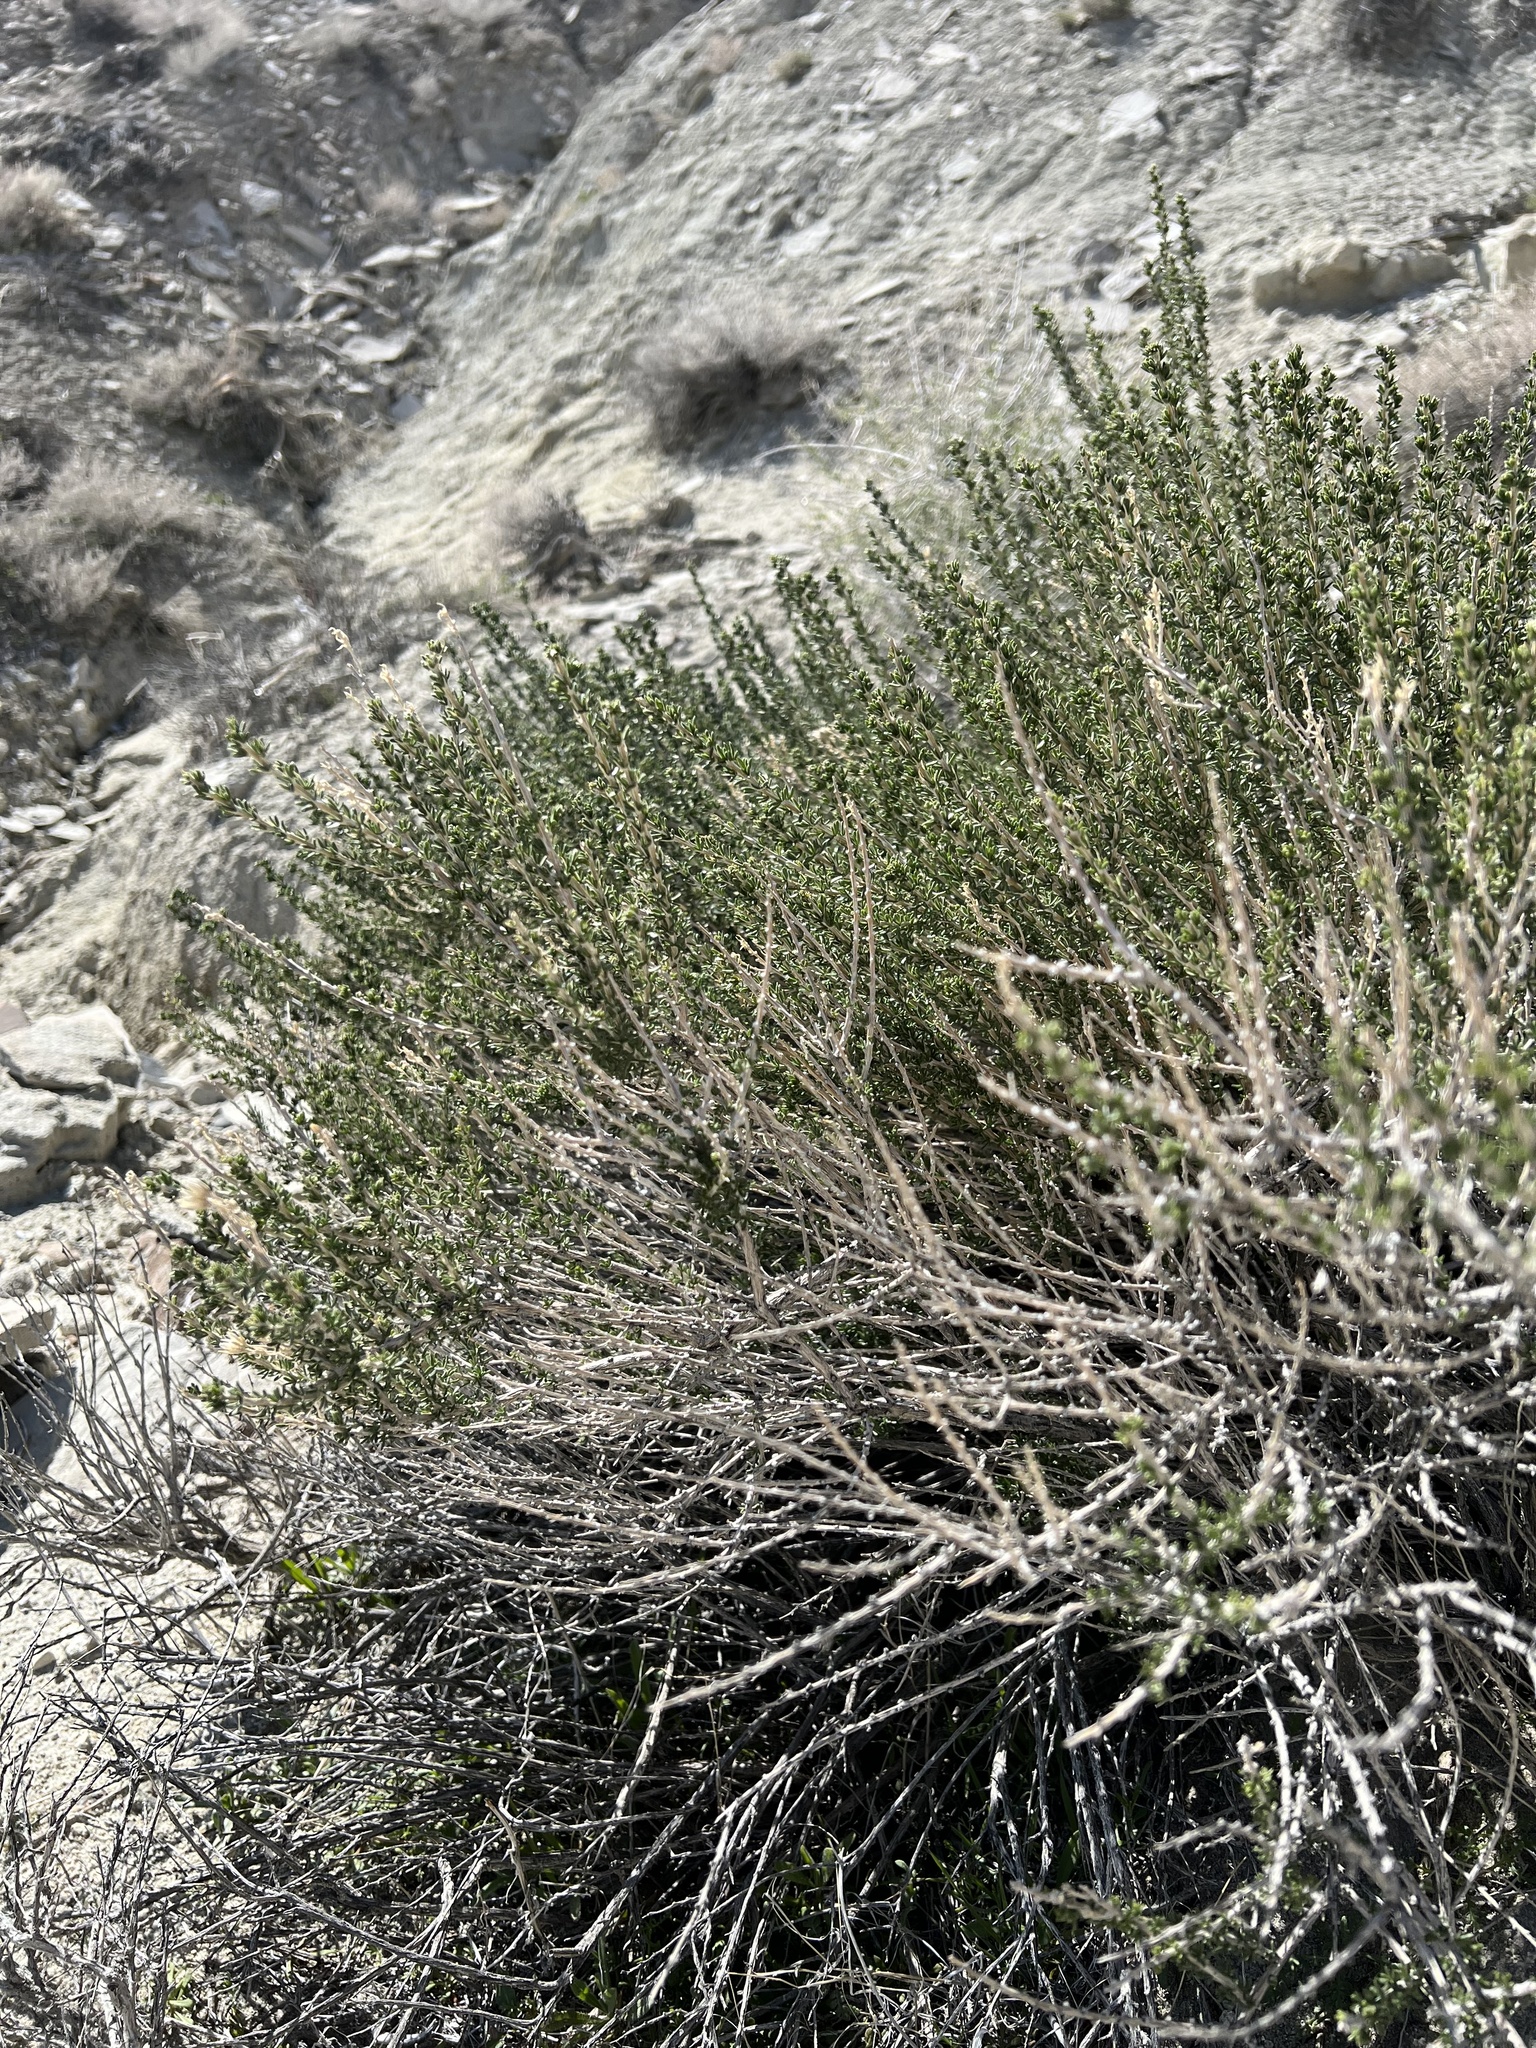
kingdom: Plantae
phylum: Tracheophyta
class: Magnoliopsida
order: Asterales
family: Asteraceae
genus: Tetradymia
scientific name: Tetradymia glabrata
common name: Smooth tetradymia
